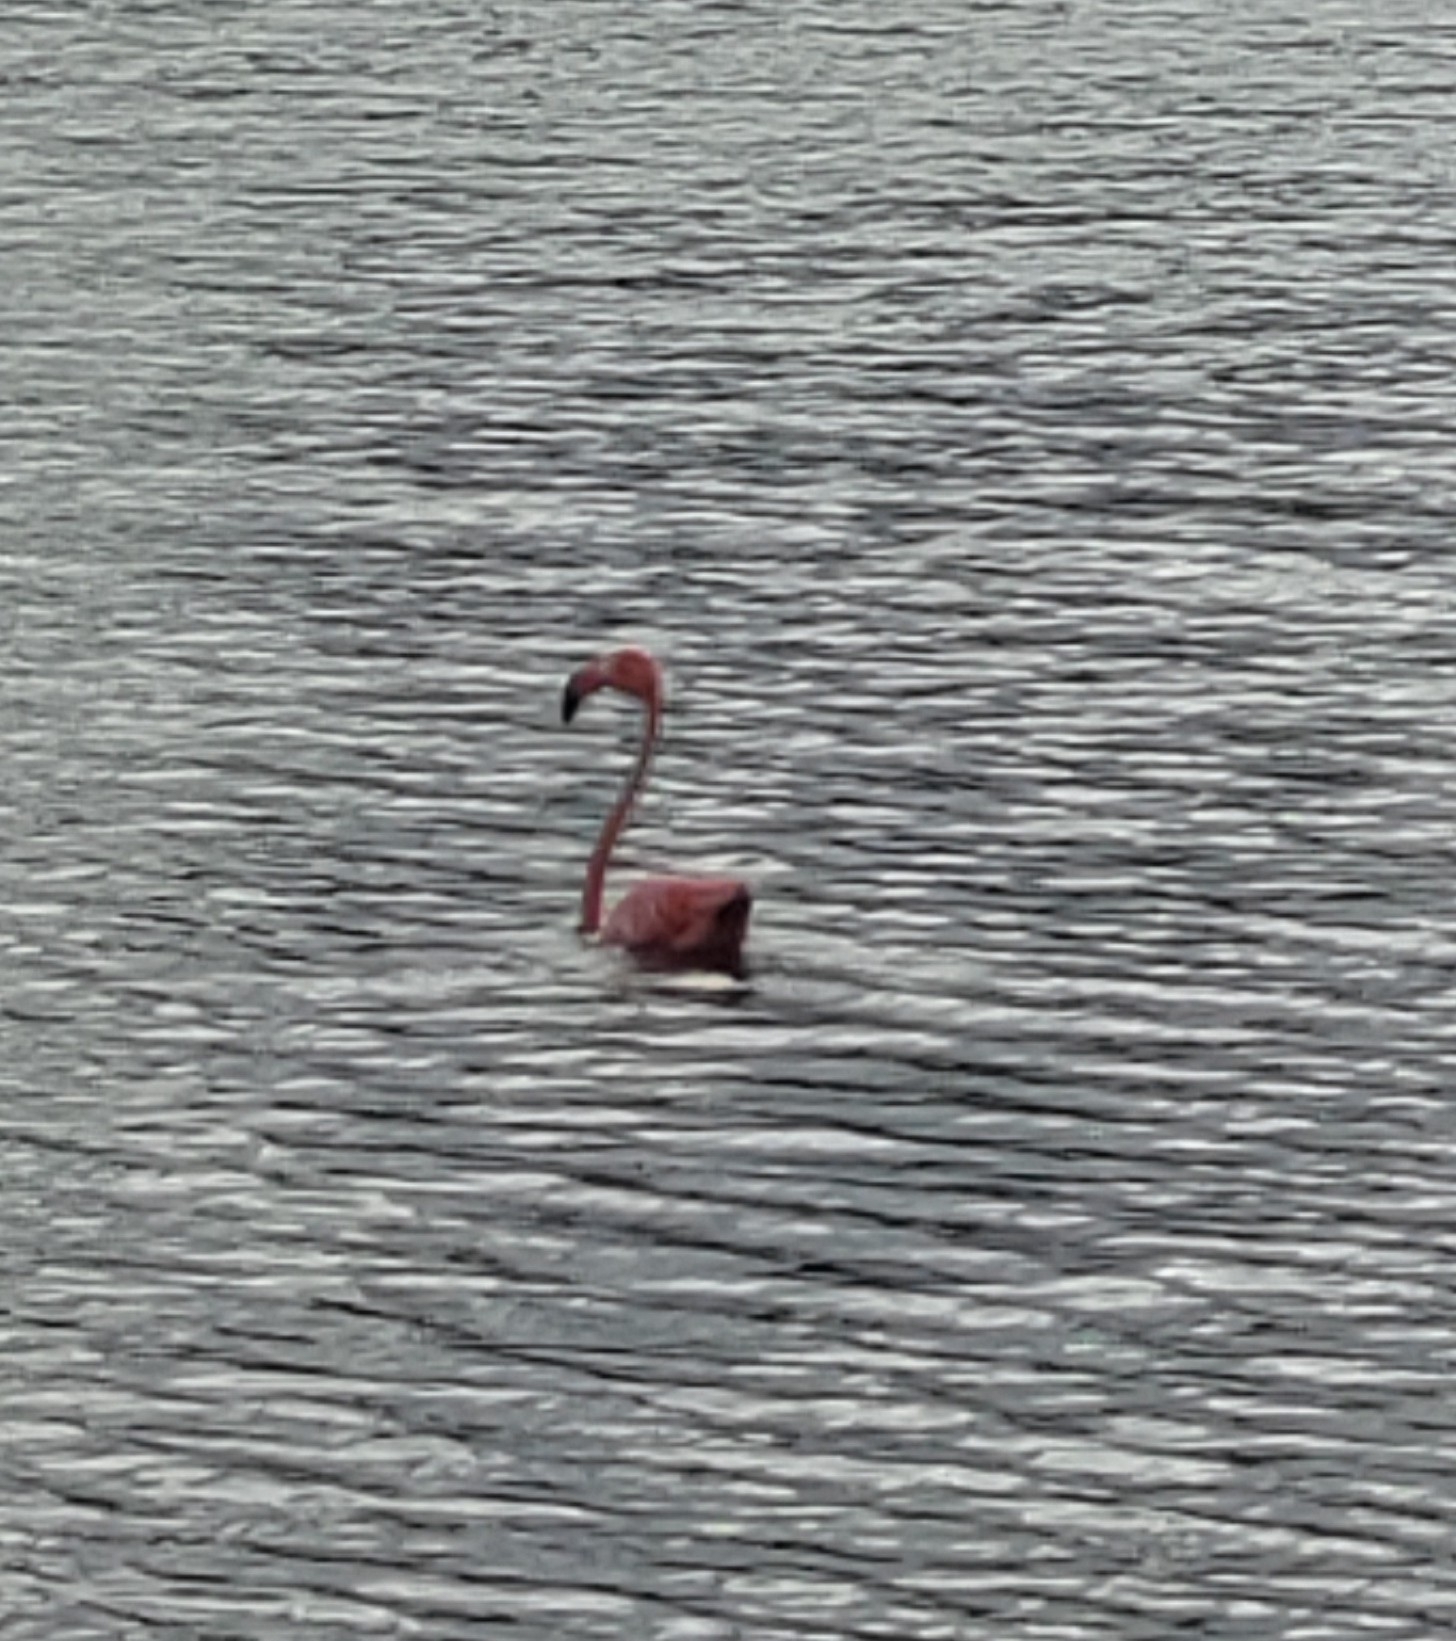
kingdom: Animalia
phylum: Chordata
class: Aves
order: Phoenicopteriformes
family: Phoenicopteridae
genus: Phoenicopterus
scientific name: Phoenicopterus ruber
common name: American flamingo
